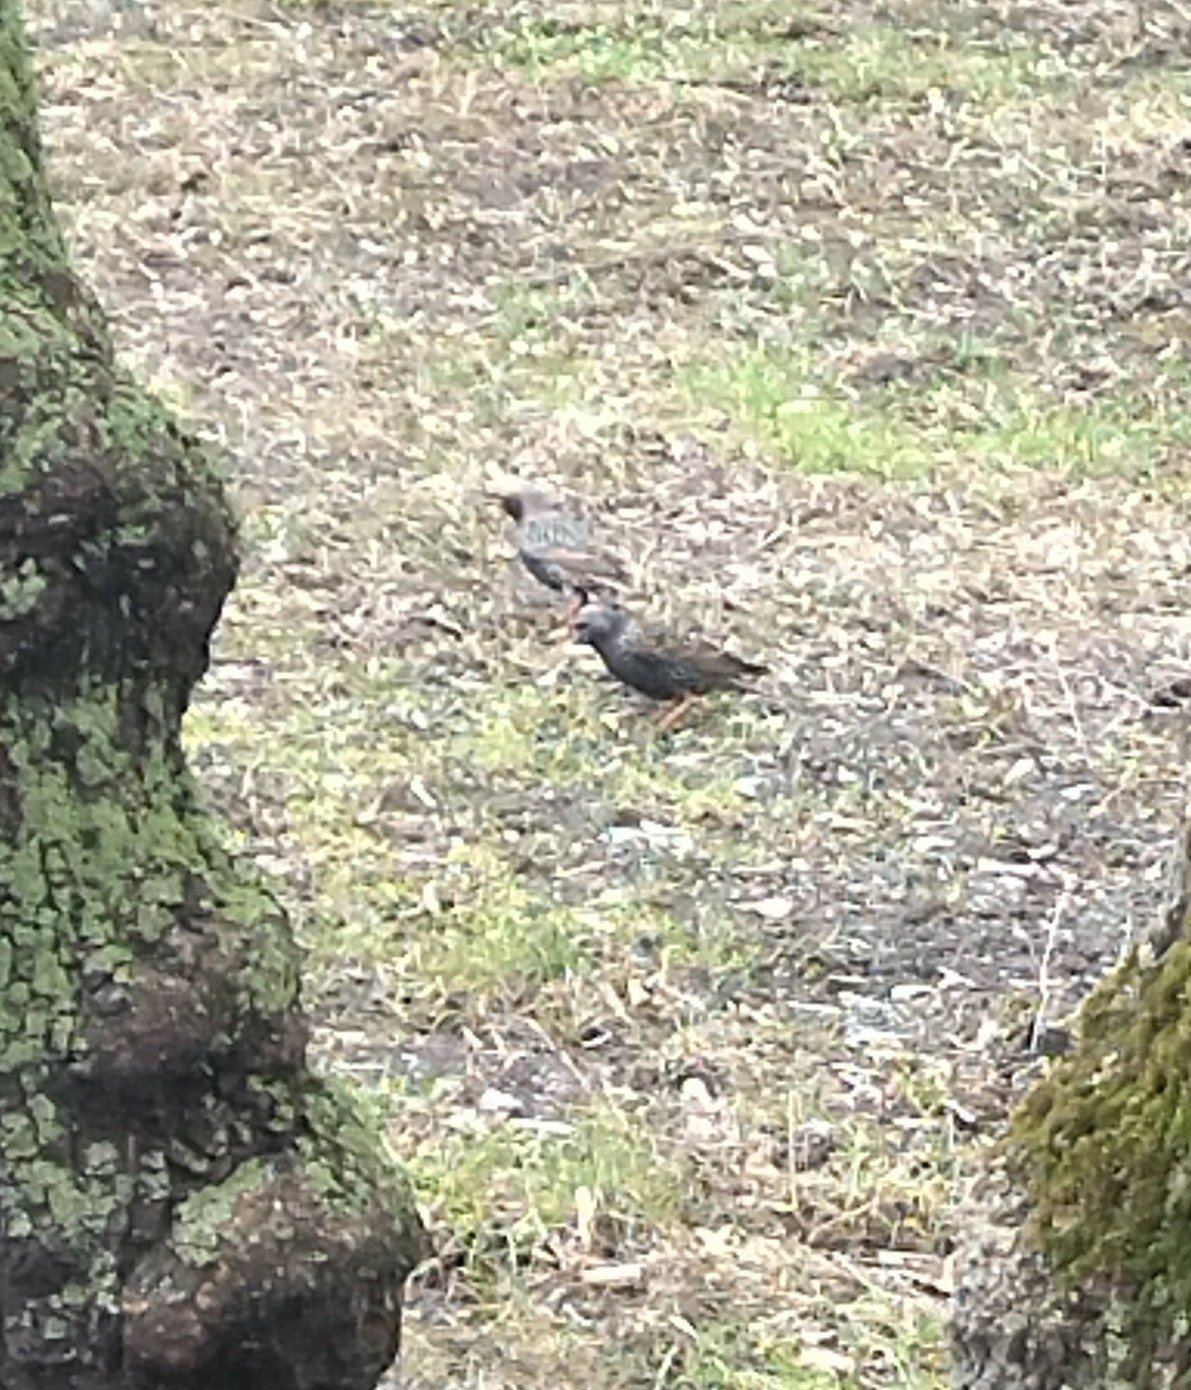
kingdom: Animalia
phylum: Chordata
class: Aves
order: Passeriformes
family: Sturnidae
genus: Sturnus
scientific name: Sturnus vulgaris
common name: Common starling
